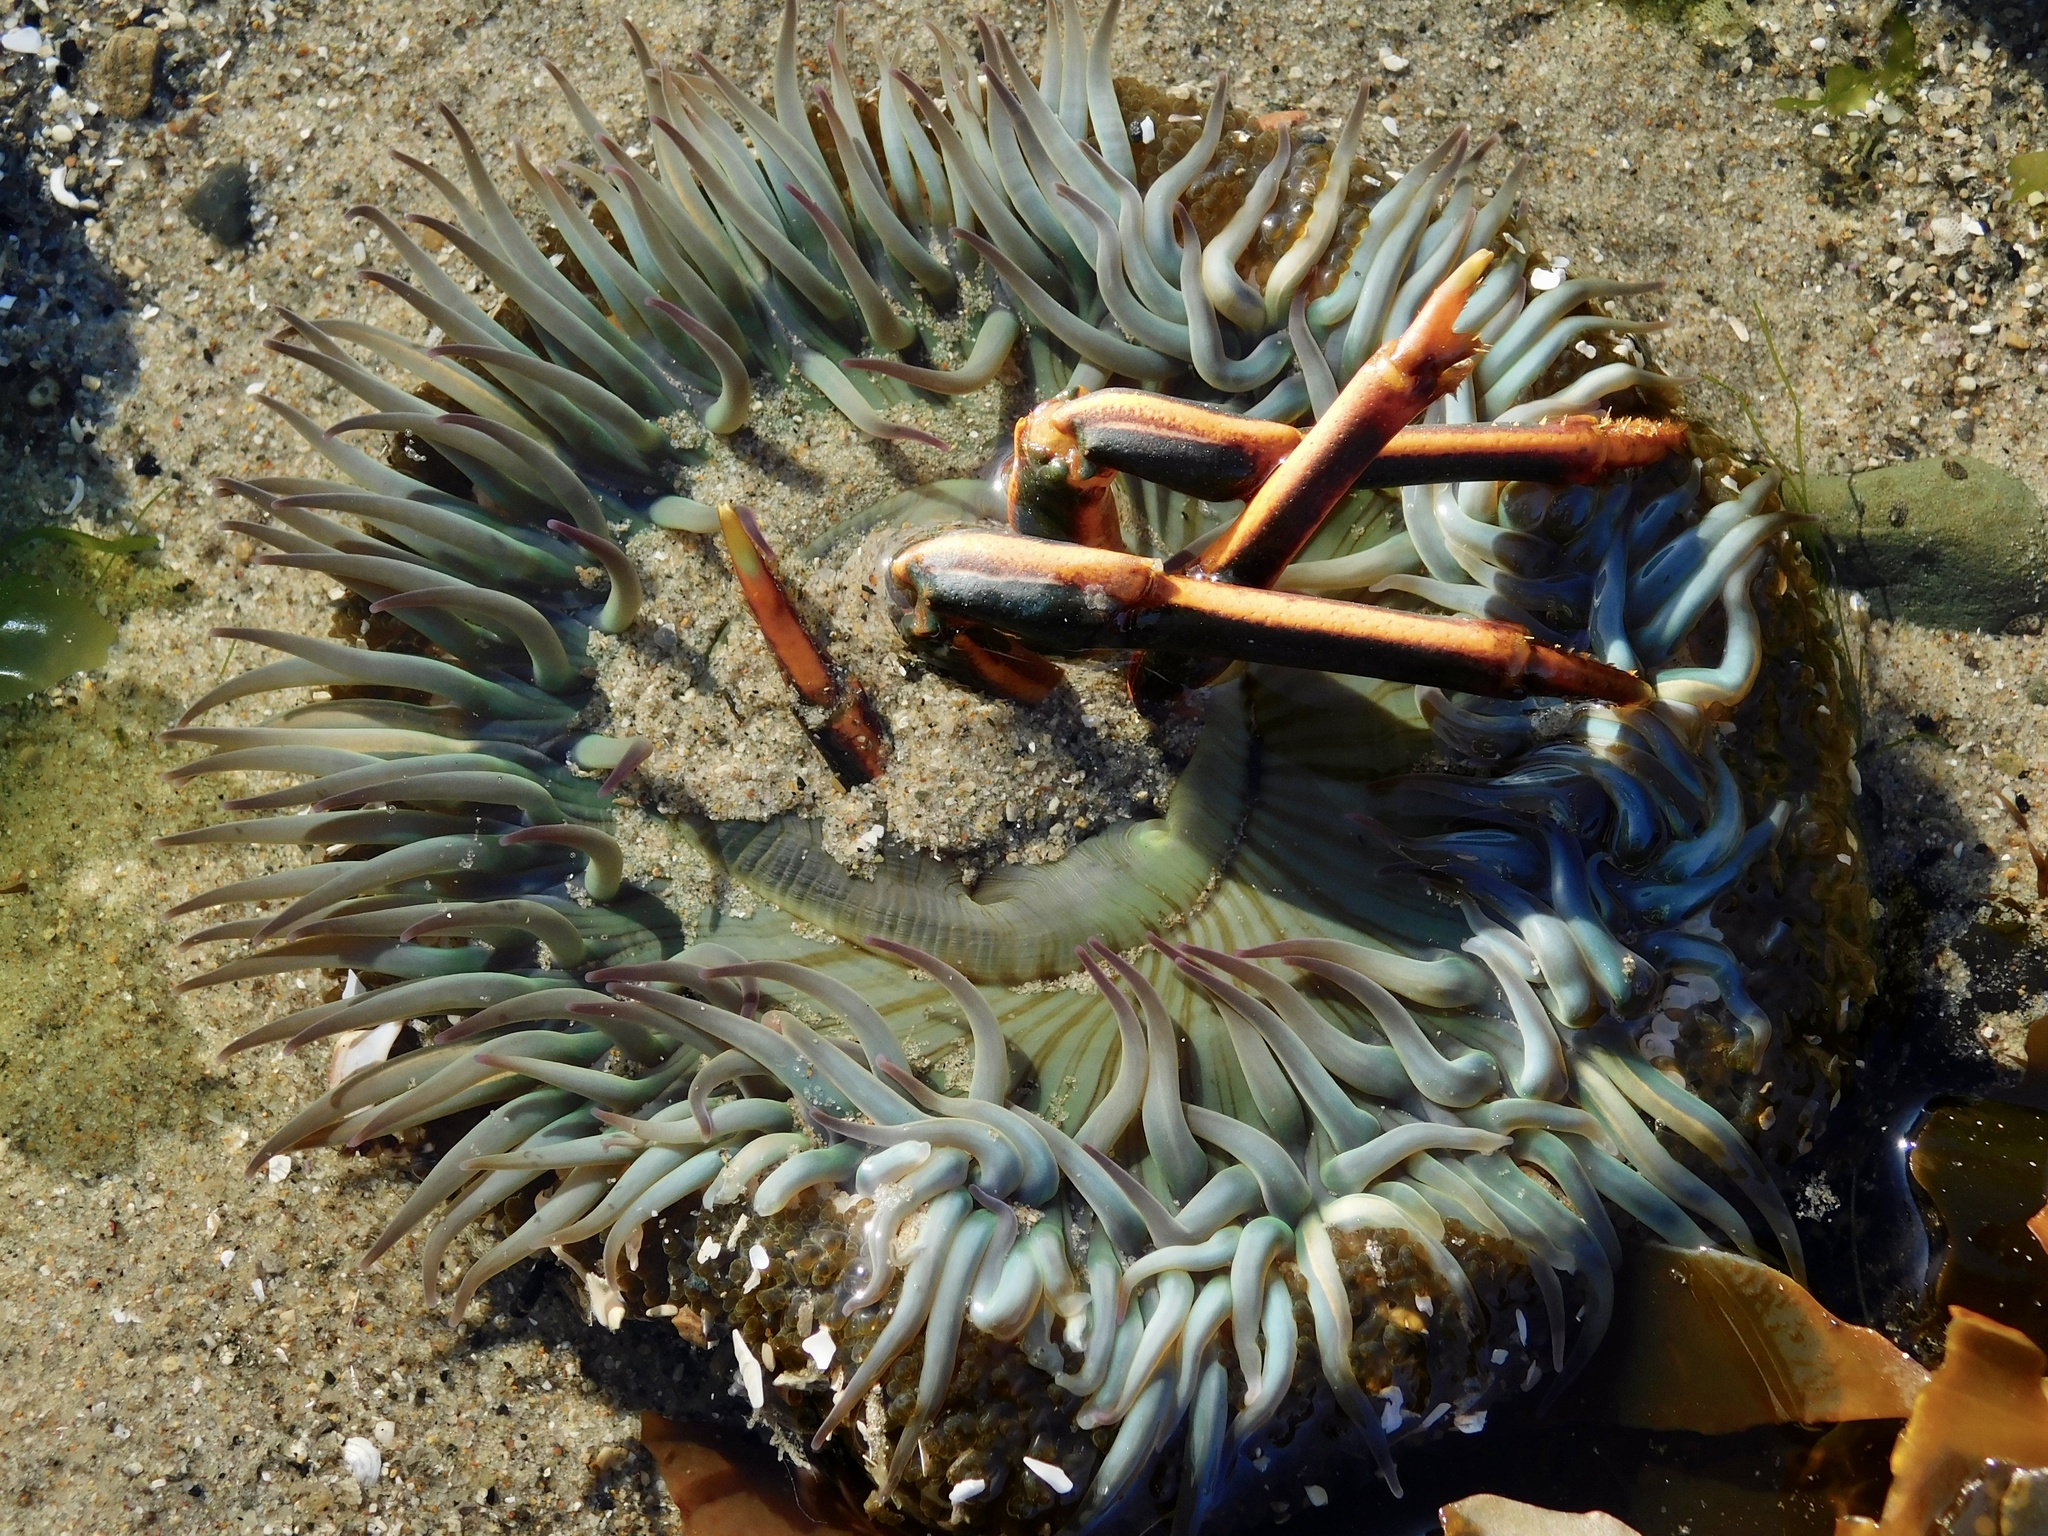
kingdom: Animalia
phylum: Cnidaria
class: Anthozoa
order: Actiniaria
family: Actiniidae
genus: Anthopleura
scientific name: Anthopleura sola
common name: Sun anemone
